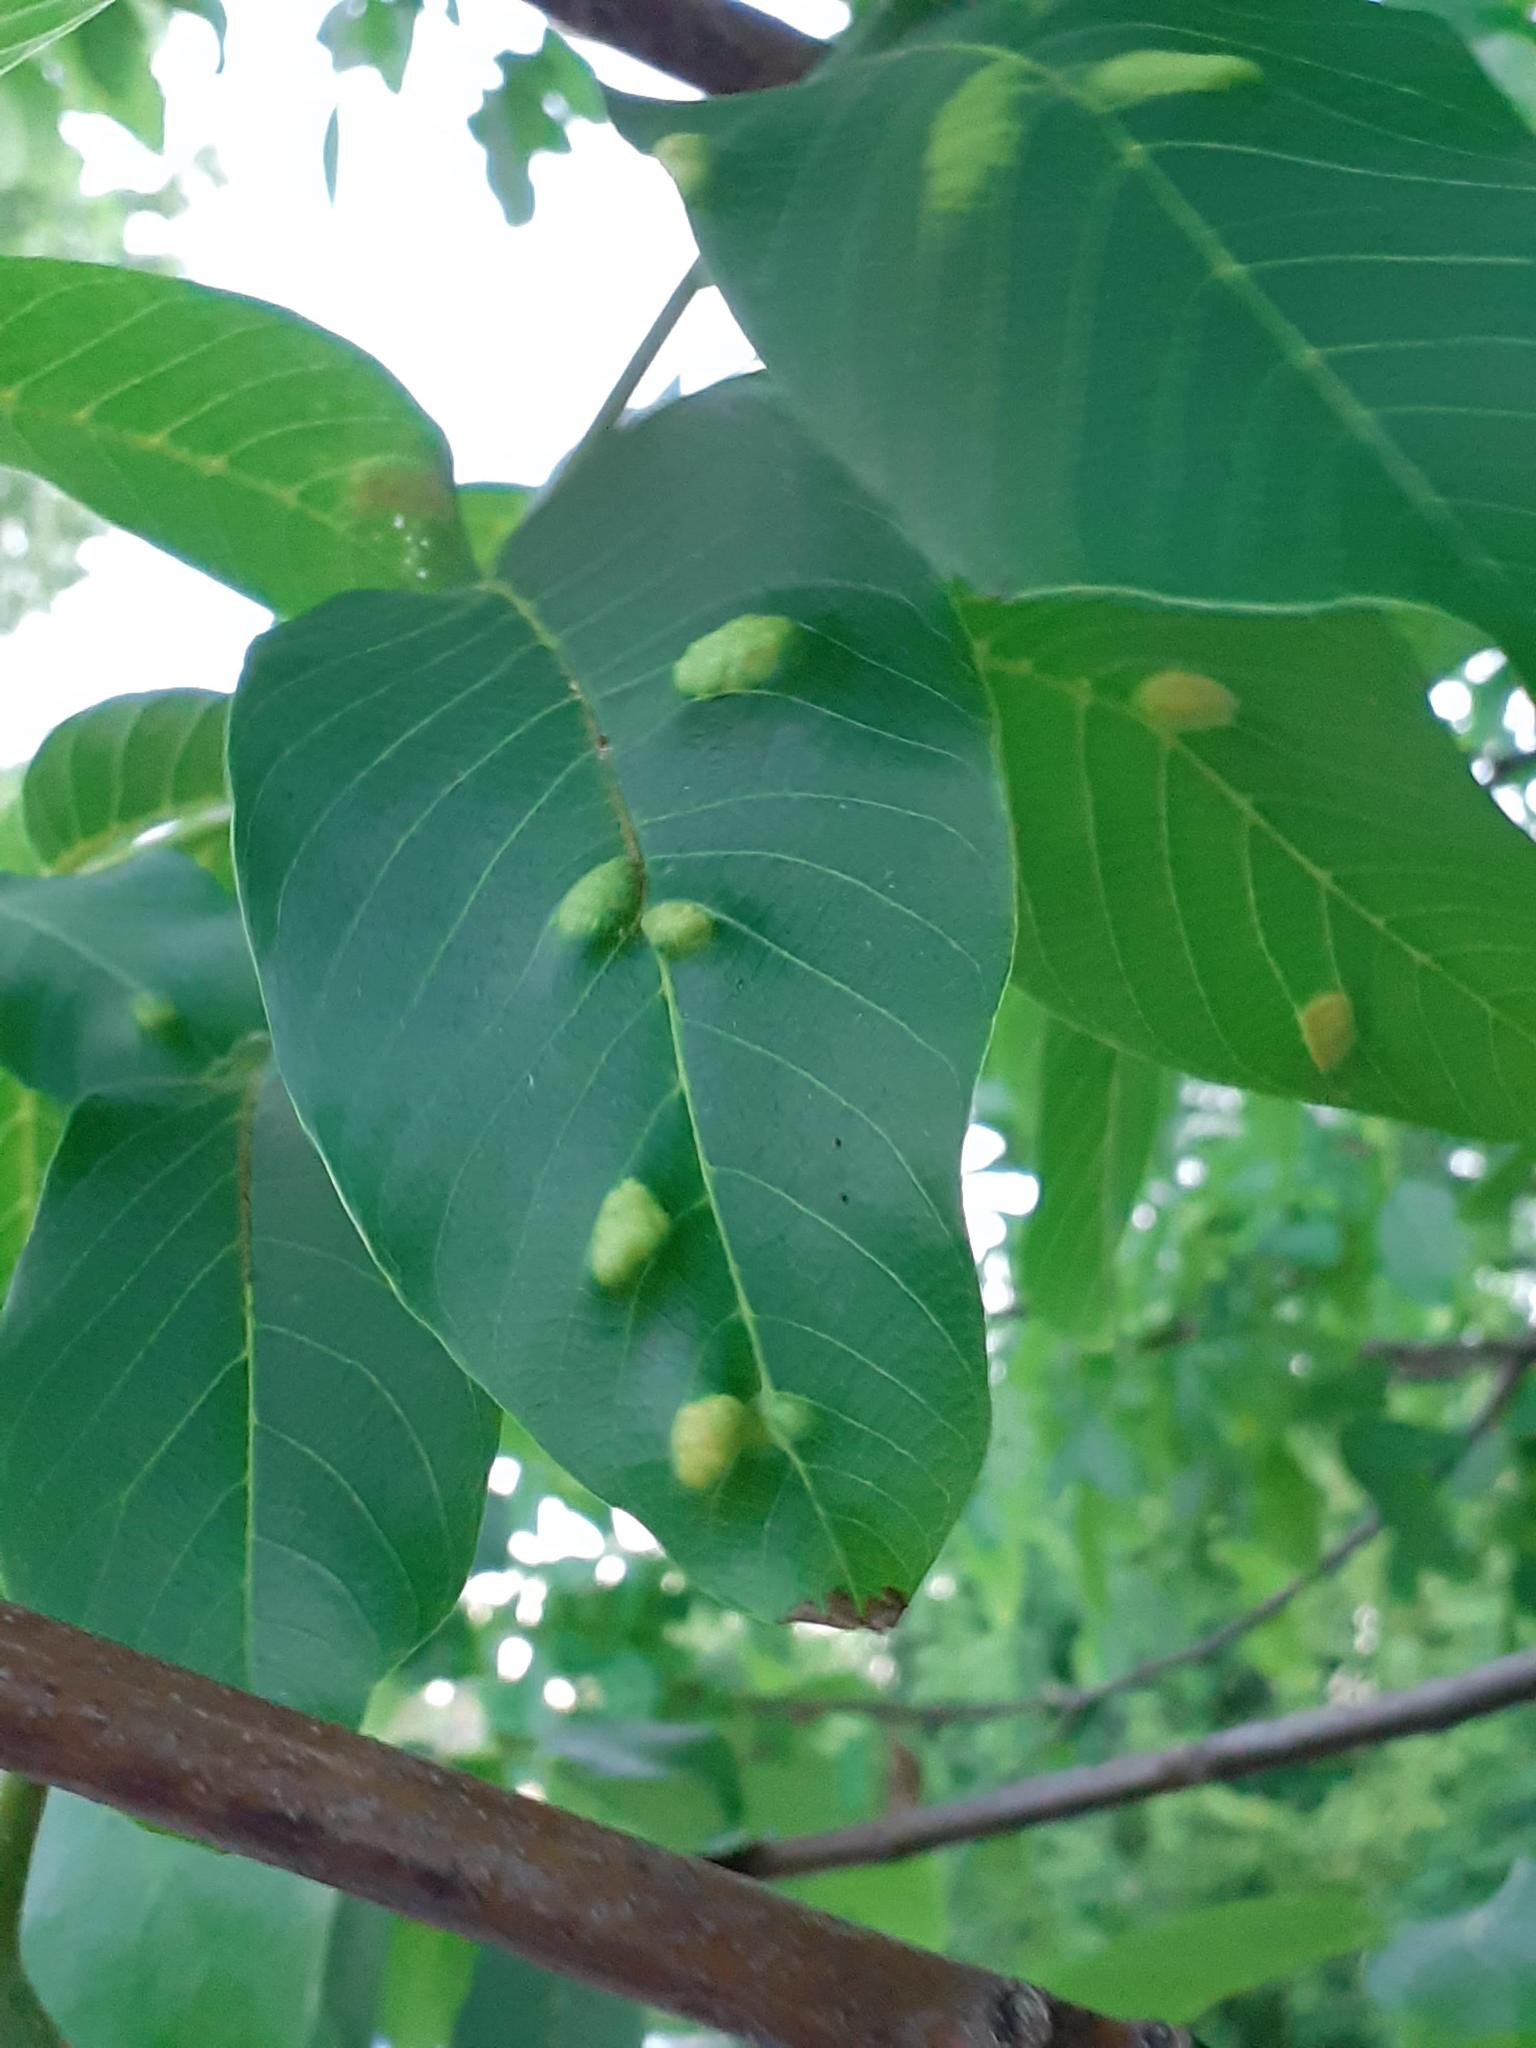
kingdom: Animalia
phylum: Arthropoda
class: Arachnida
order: Trombidiformes
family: Eriophyidae
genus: Aceria
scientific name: Aceria erinea
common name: Persian walnut erineum mite
